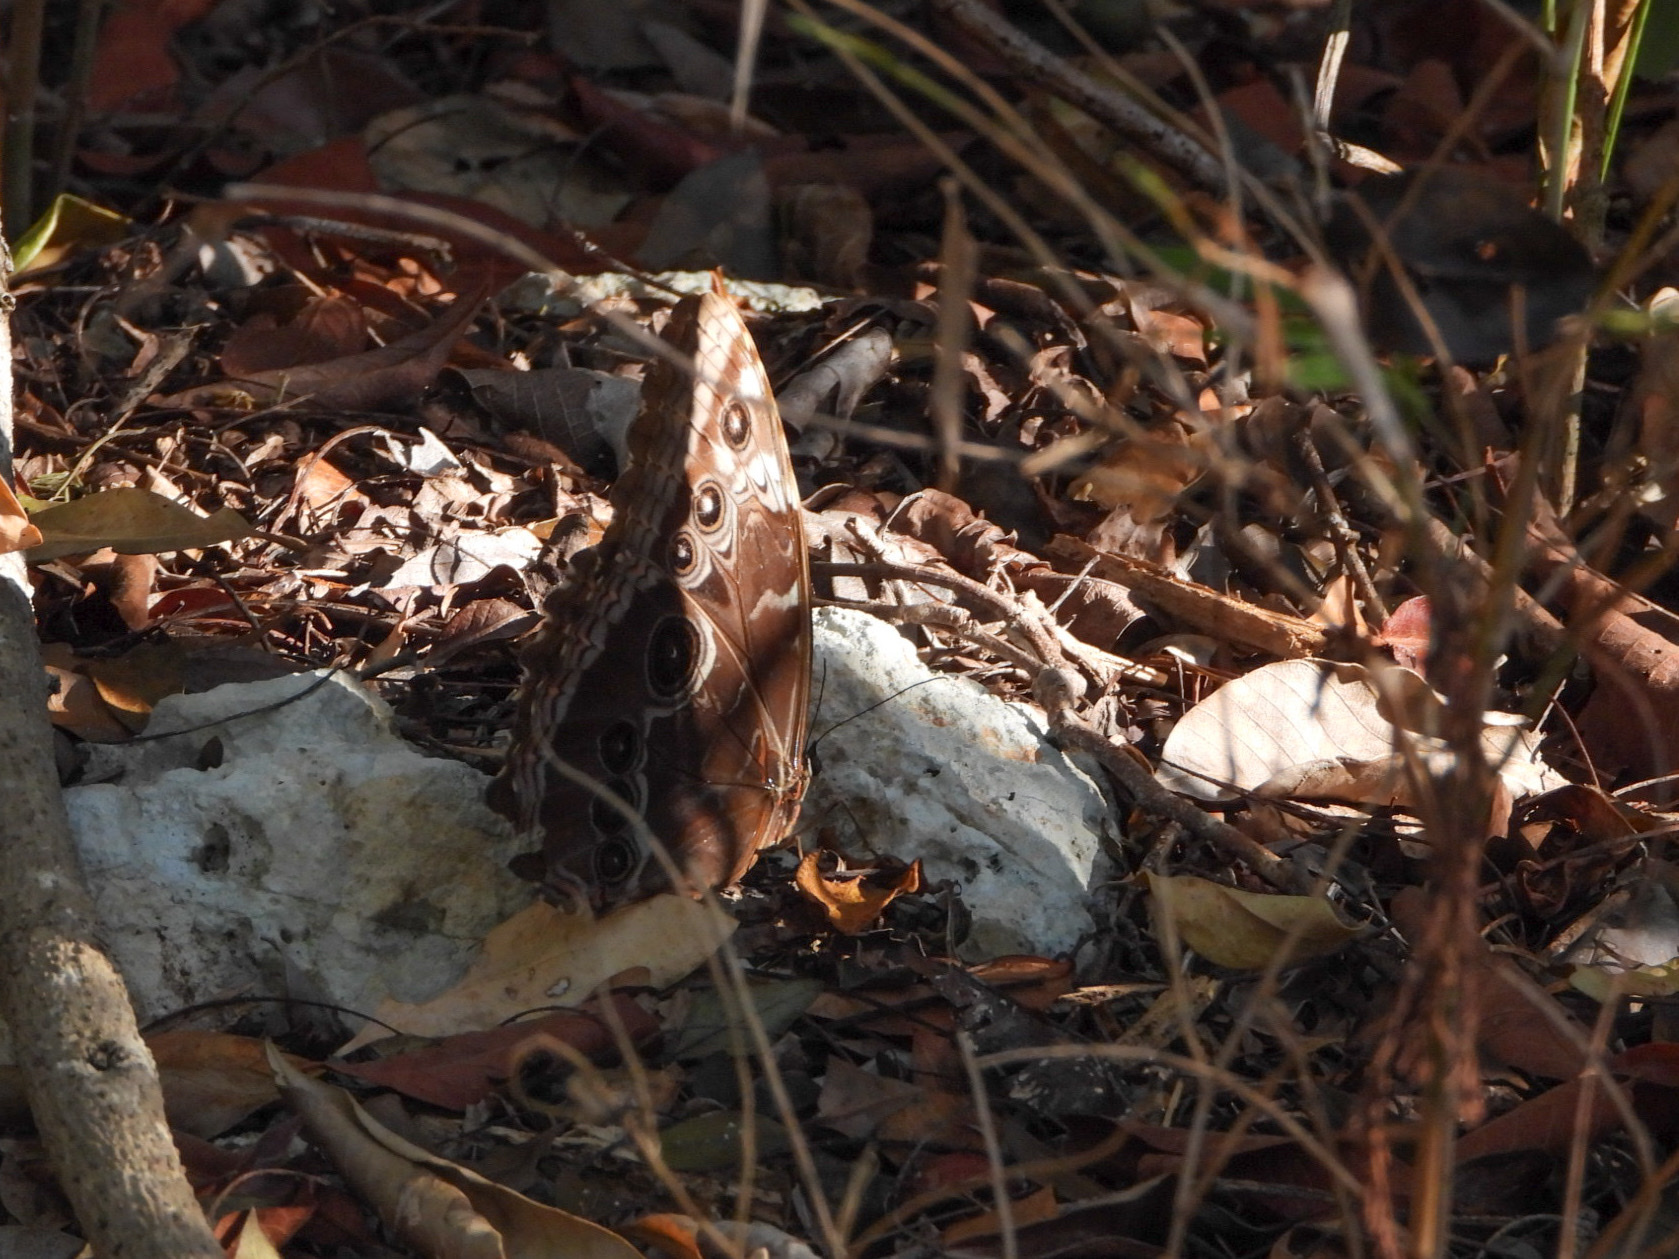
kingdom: Animalia
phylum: Arthropoda
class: Insecta
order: Lepidoptera
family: Nymphalidae
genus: Morpho
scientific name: Morpho helenor
